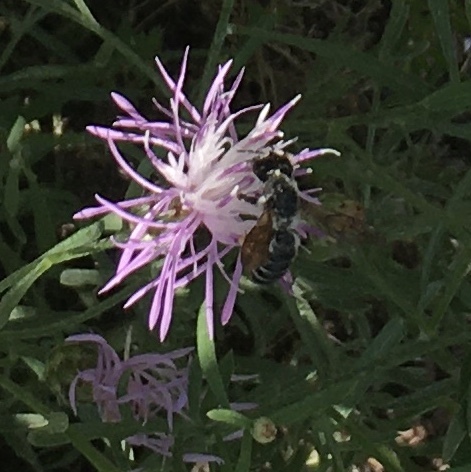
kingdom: Animalia
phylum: Arthropoda
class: Insecta
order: Hymenoptera
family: Megachilidae
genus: Megachile
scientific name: Megachile pugnata
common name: Pugnacious leafcutter bee
